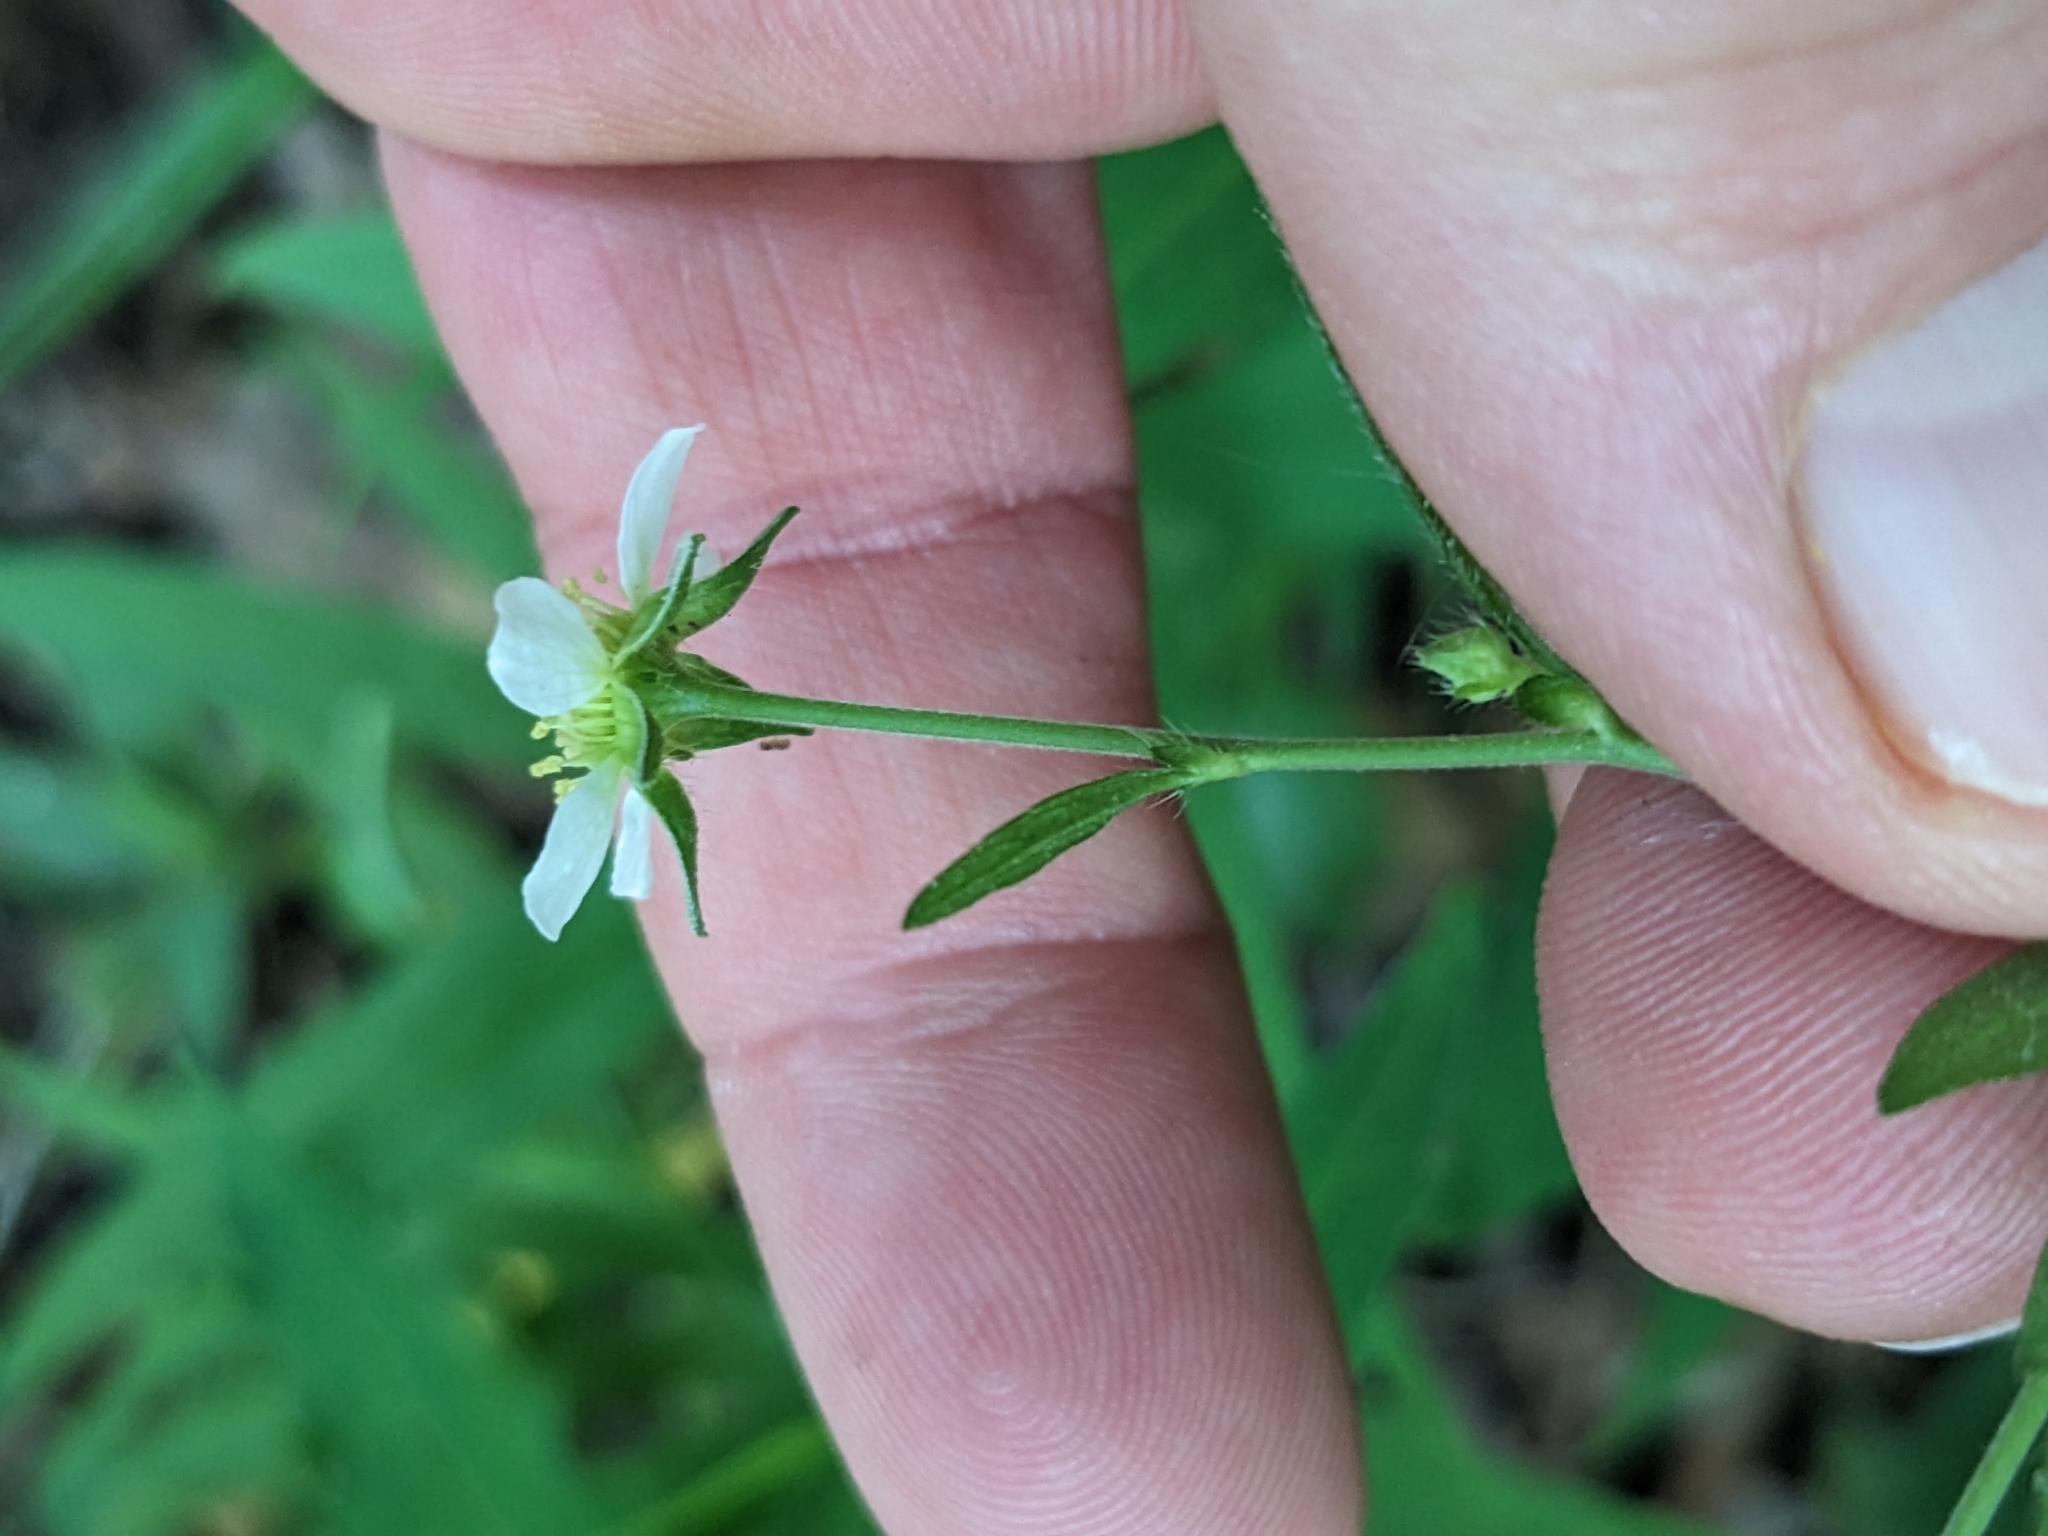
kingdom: Plantae
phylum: Tracheophyta
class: Magnoliopsida
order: Rosales
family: Rosaceae
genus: Geum
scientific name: Geum canadense
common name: White avens
